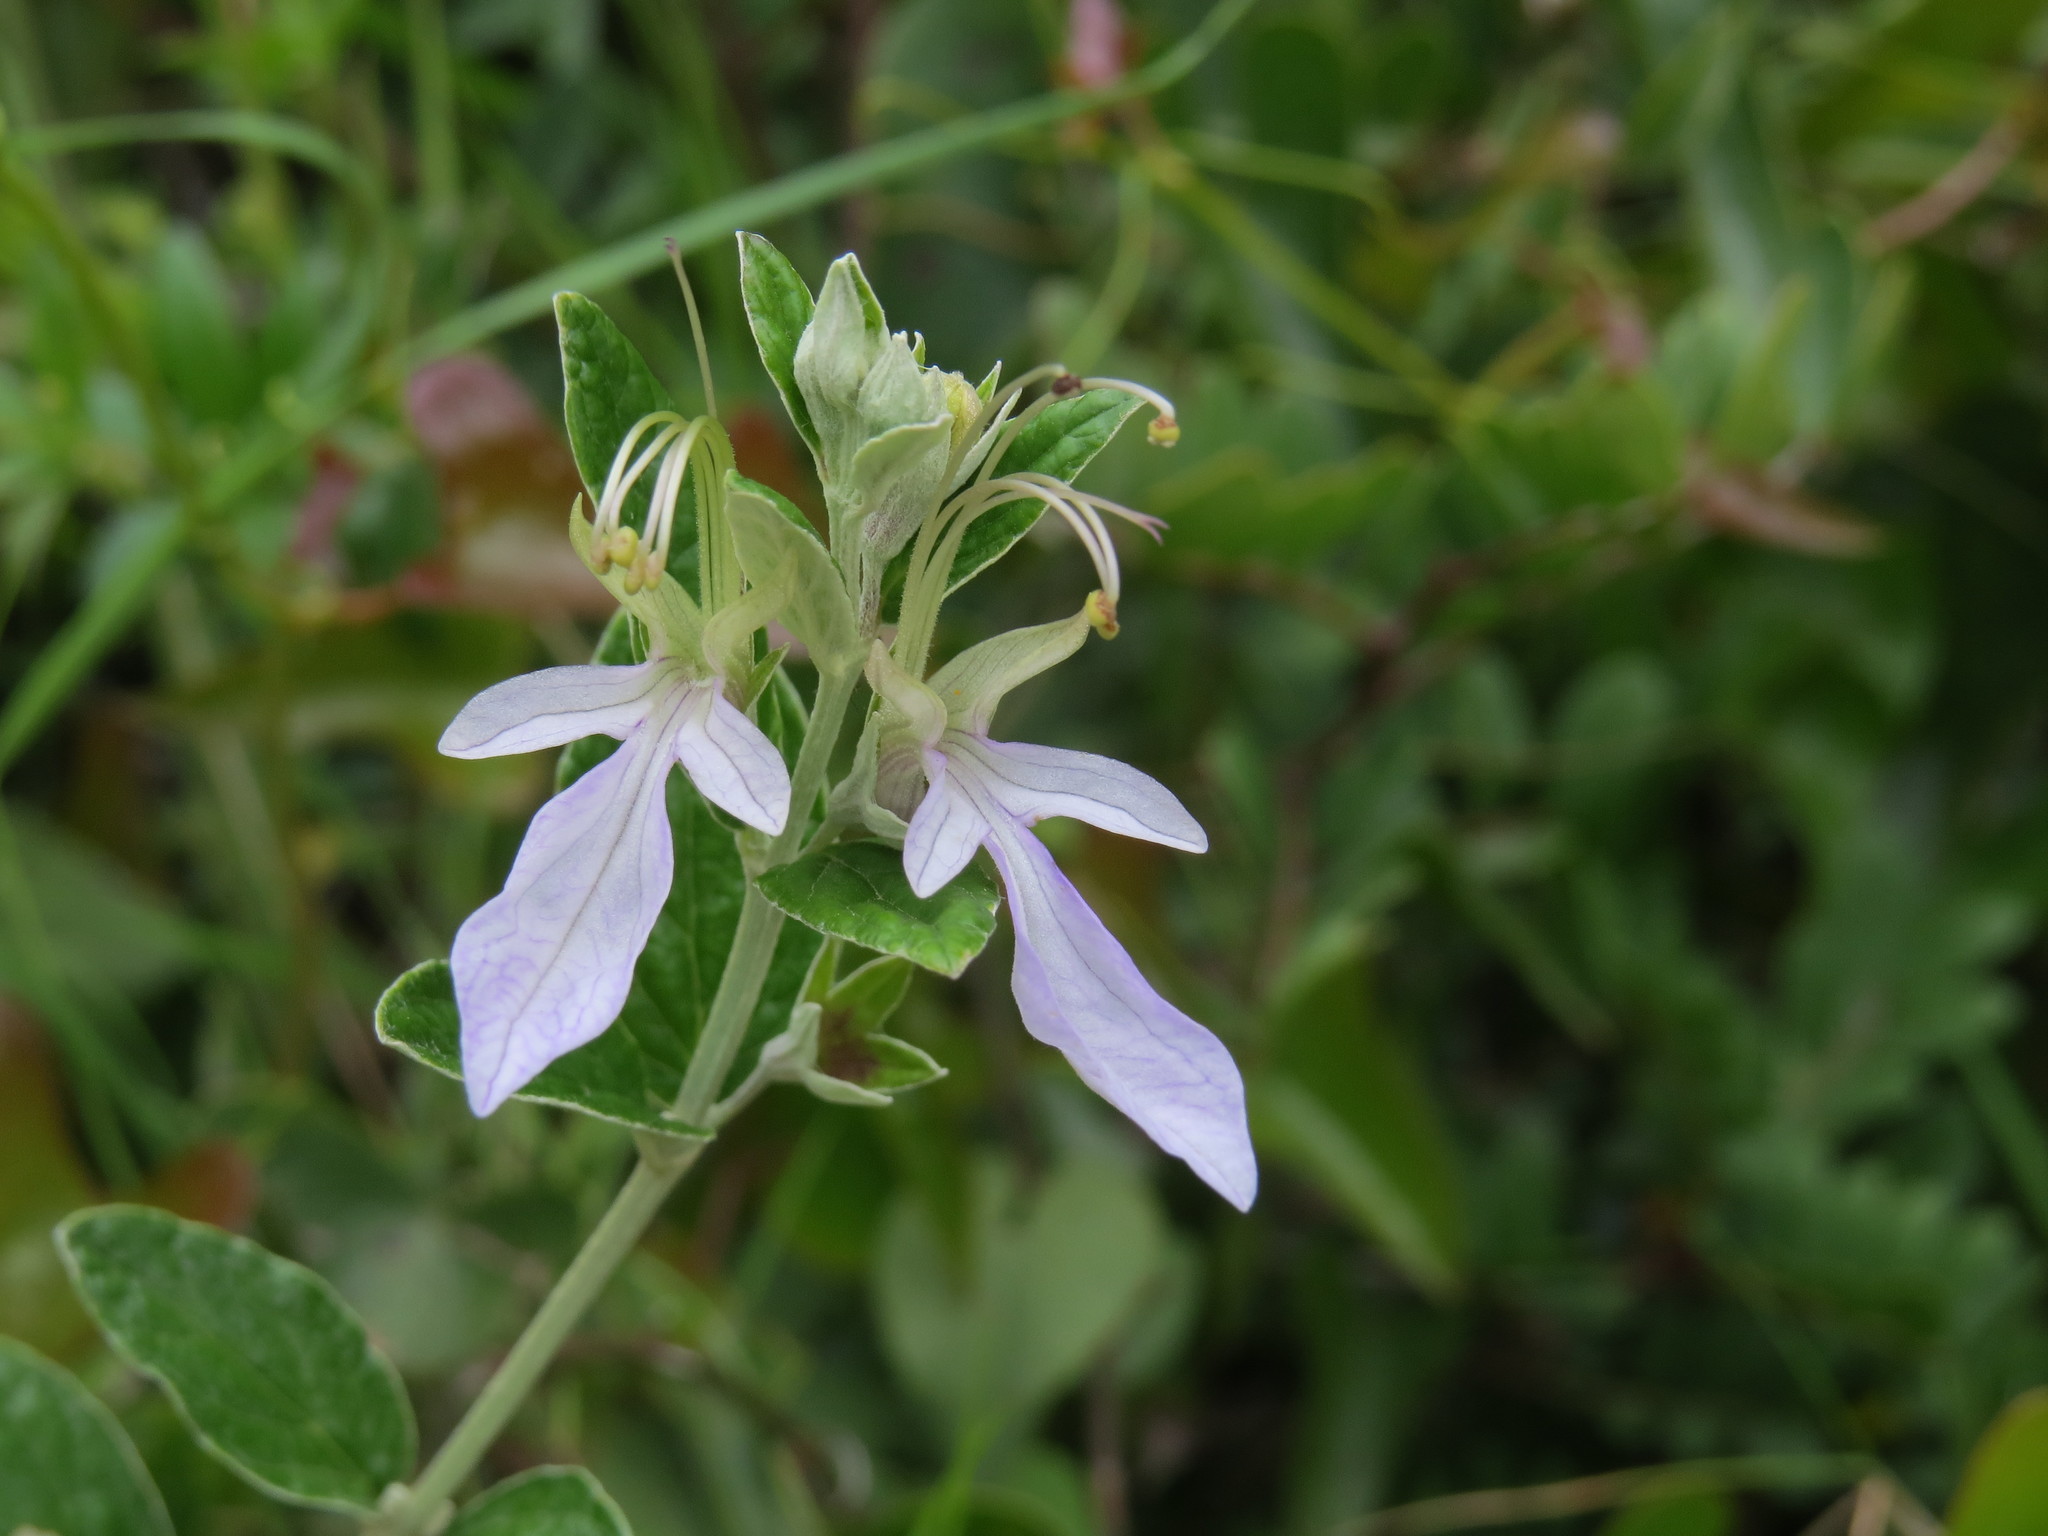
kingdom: Plantae
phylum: Tracheophyta
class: Magnoliopsida
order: Lamiales
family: Lamiaceae
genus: Teucrium
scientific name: Teucrium fruticans
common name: Shrubby germander
